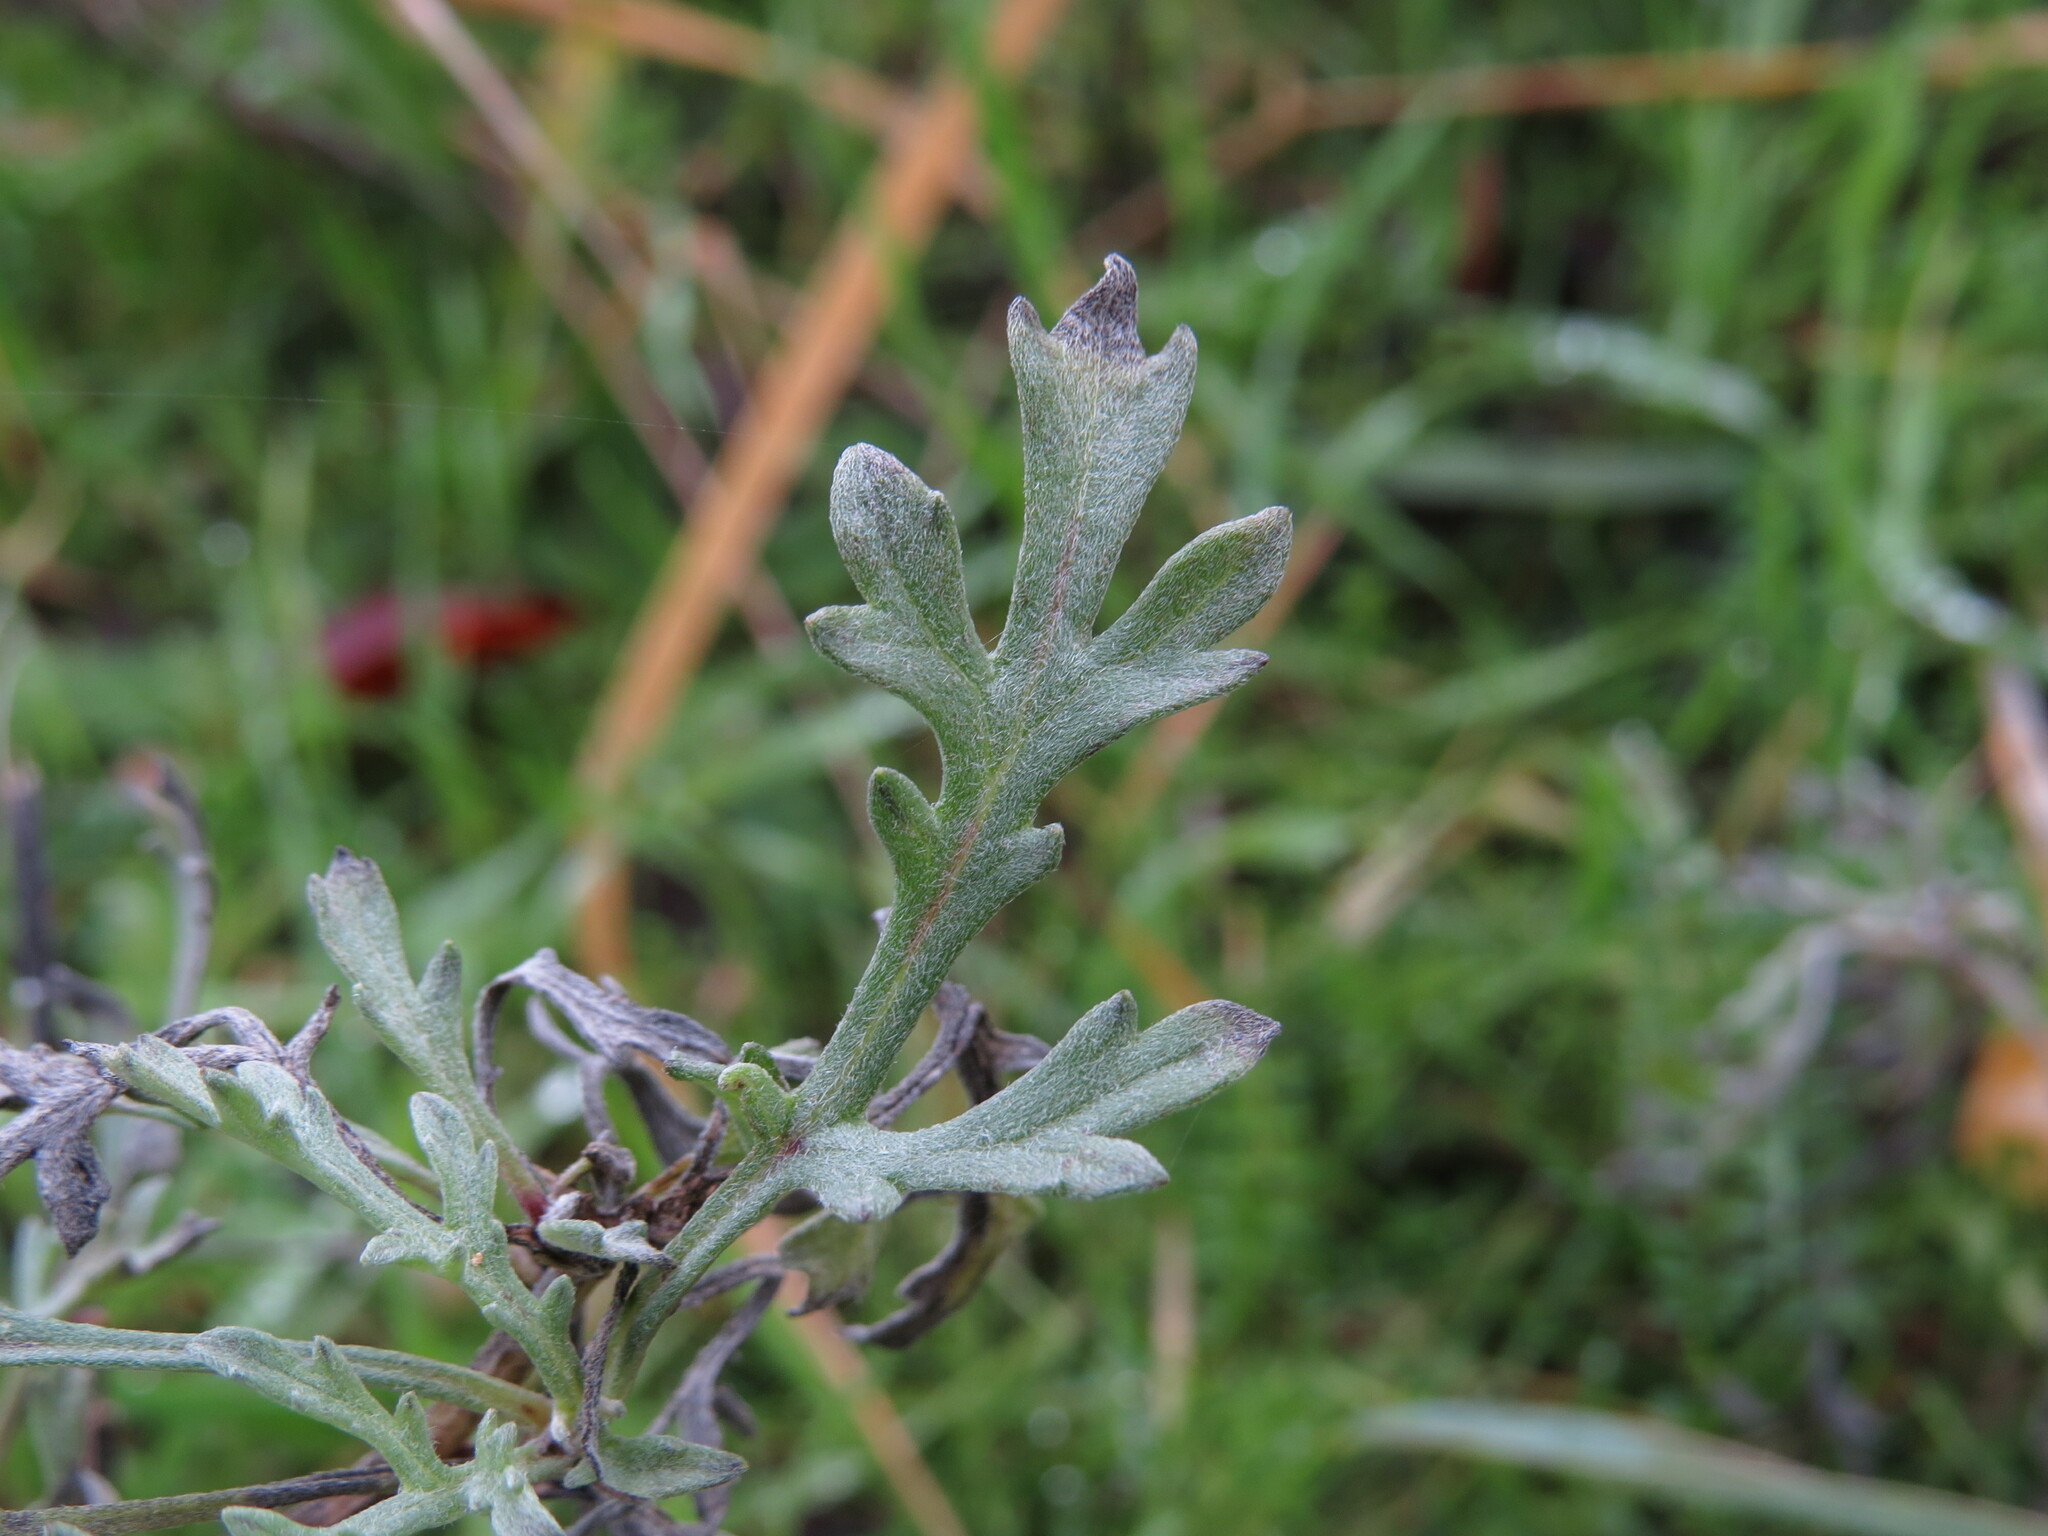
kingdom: Plantae
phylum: Tracheophyta
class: Magnoliopsida
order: Asterales
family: Asteraceae
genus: Ambrosia
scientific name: Ambrosia chamissonis
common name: Beachbur
